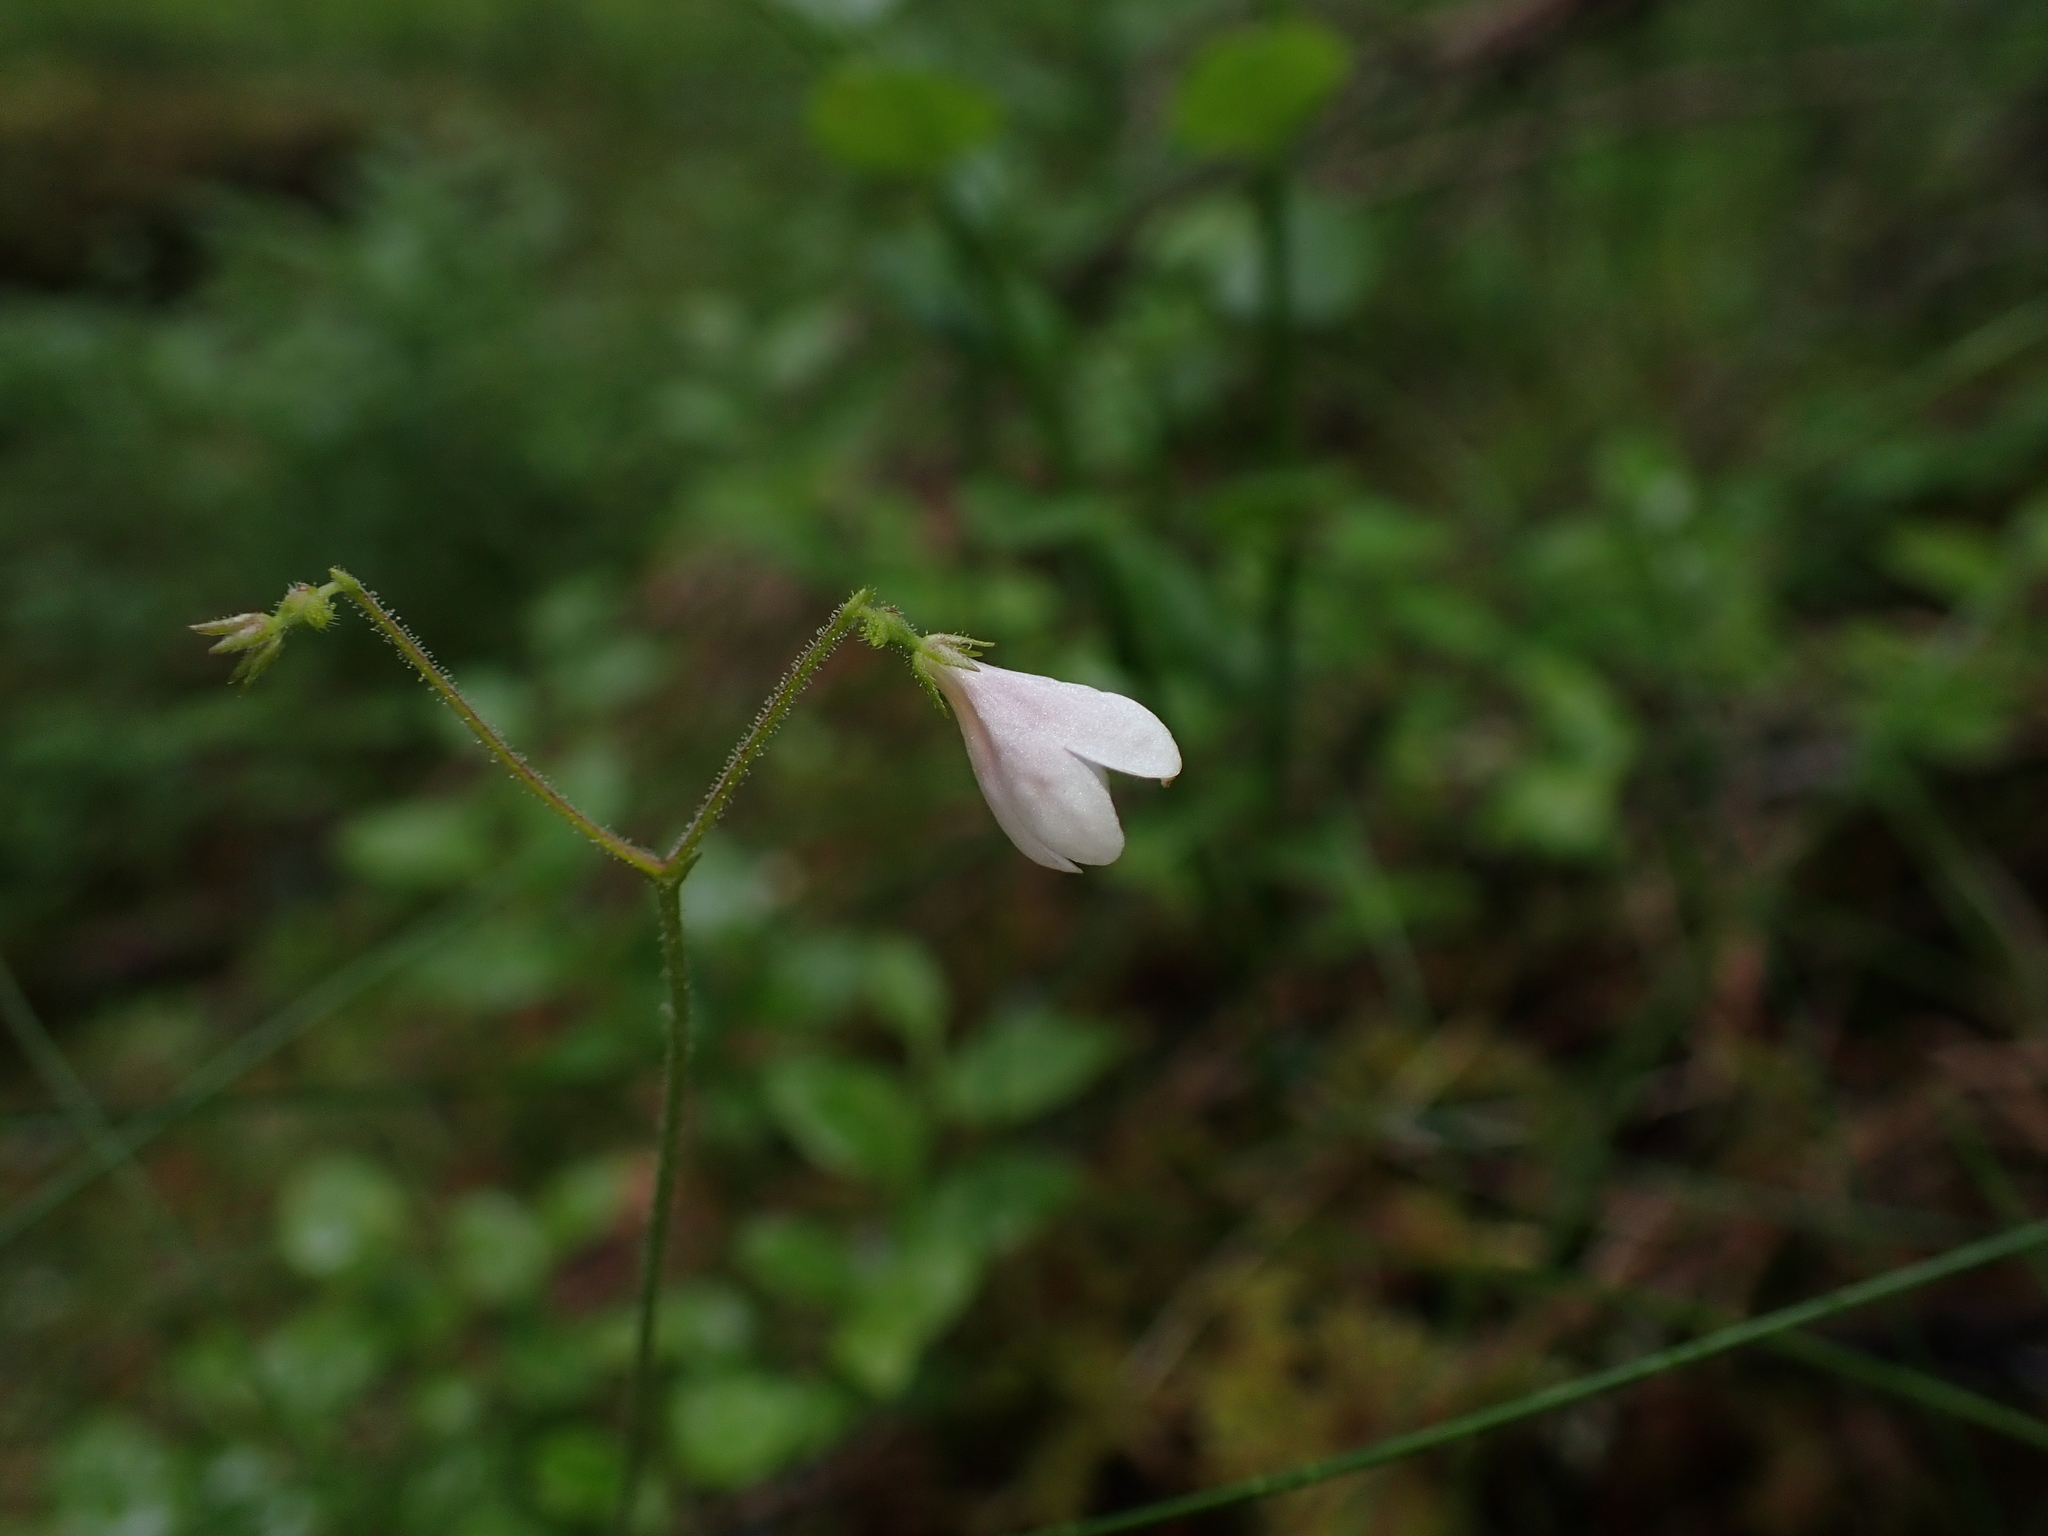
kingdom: Plantae
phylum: Tracheophyta
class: Magnoliopsida
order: Dipsacales
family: Caprifoliaceae
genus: Linnaea
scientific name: Linnaea borealis
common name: Twinflower
